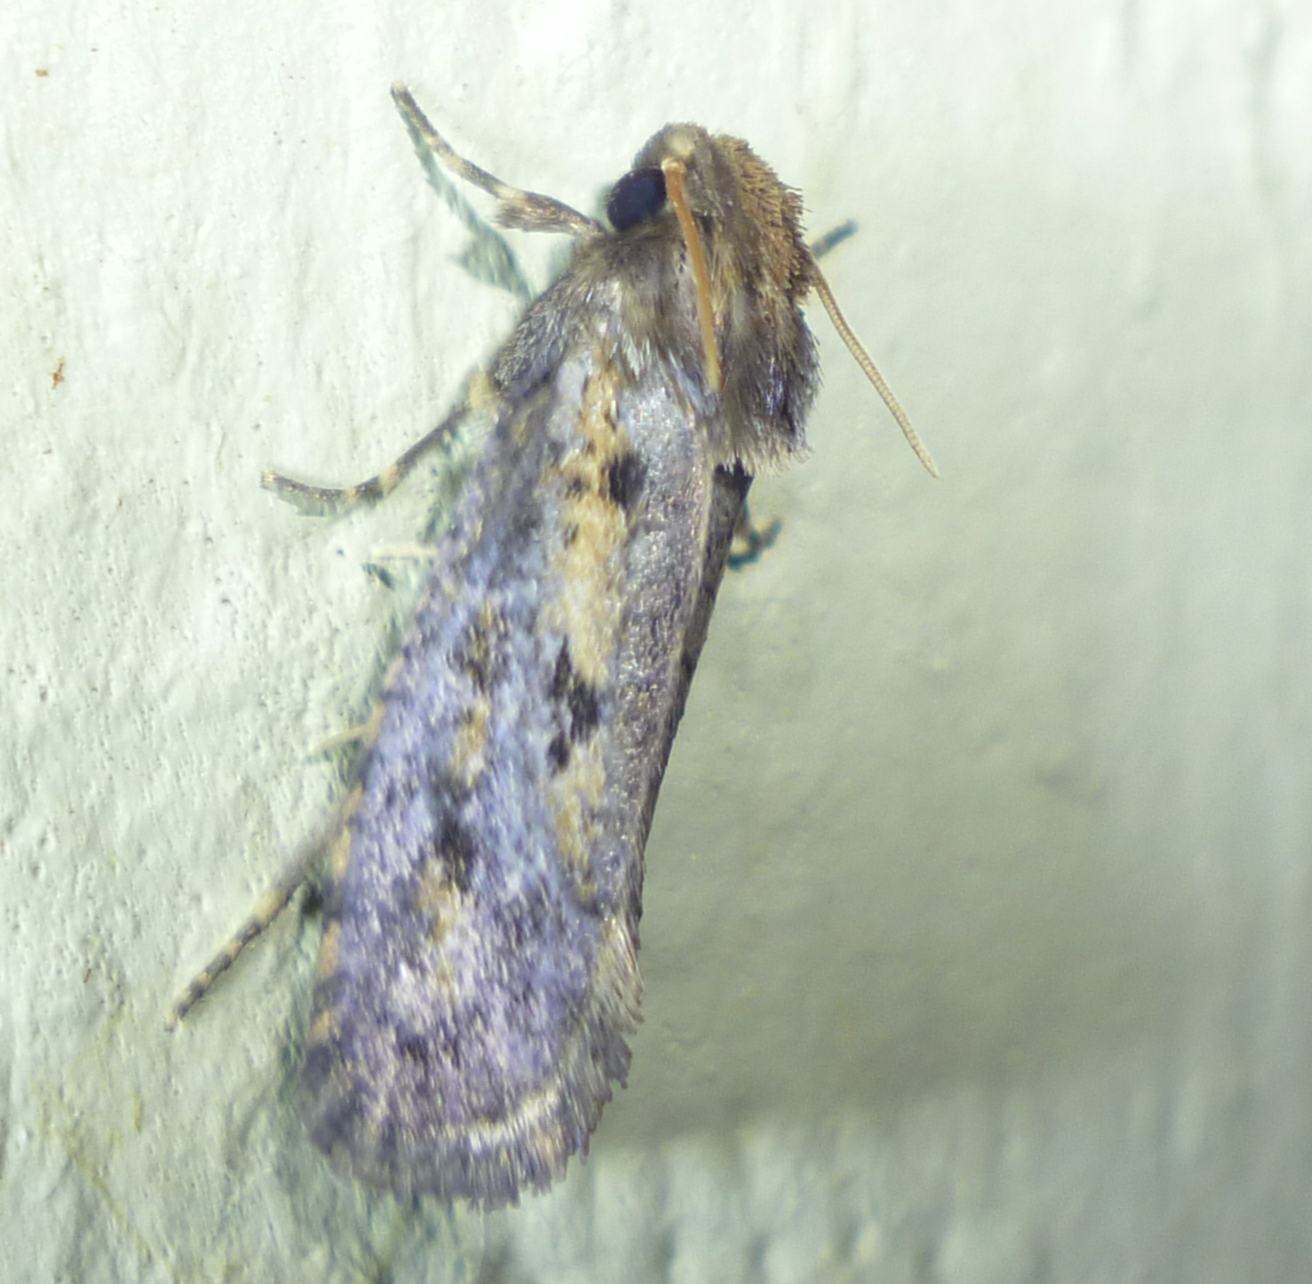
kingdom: Animalia
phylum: Arthropoda
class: Insecta
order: Lepidoptera
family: Tineidae
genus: Acrolophus
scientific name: Acrolophus popeanella
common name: Clemens' grass tubeworm moth
